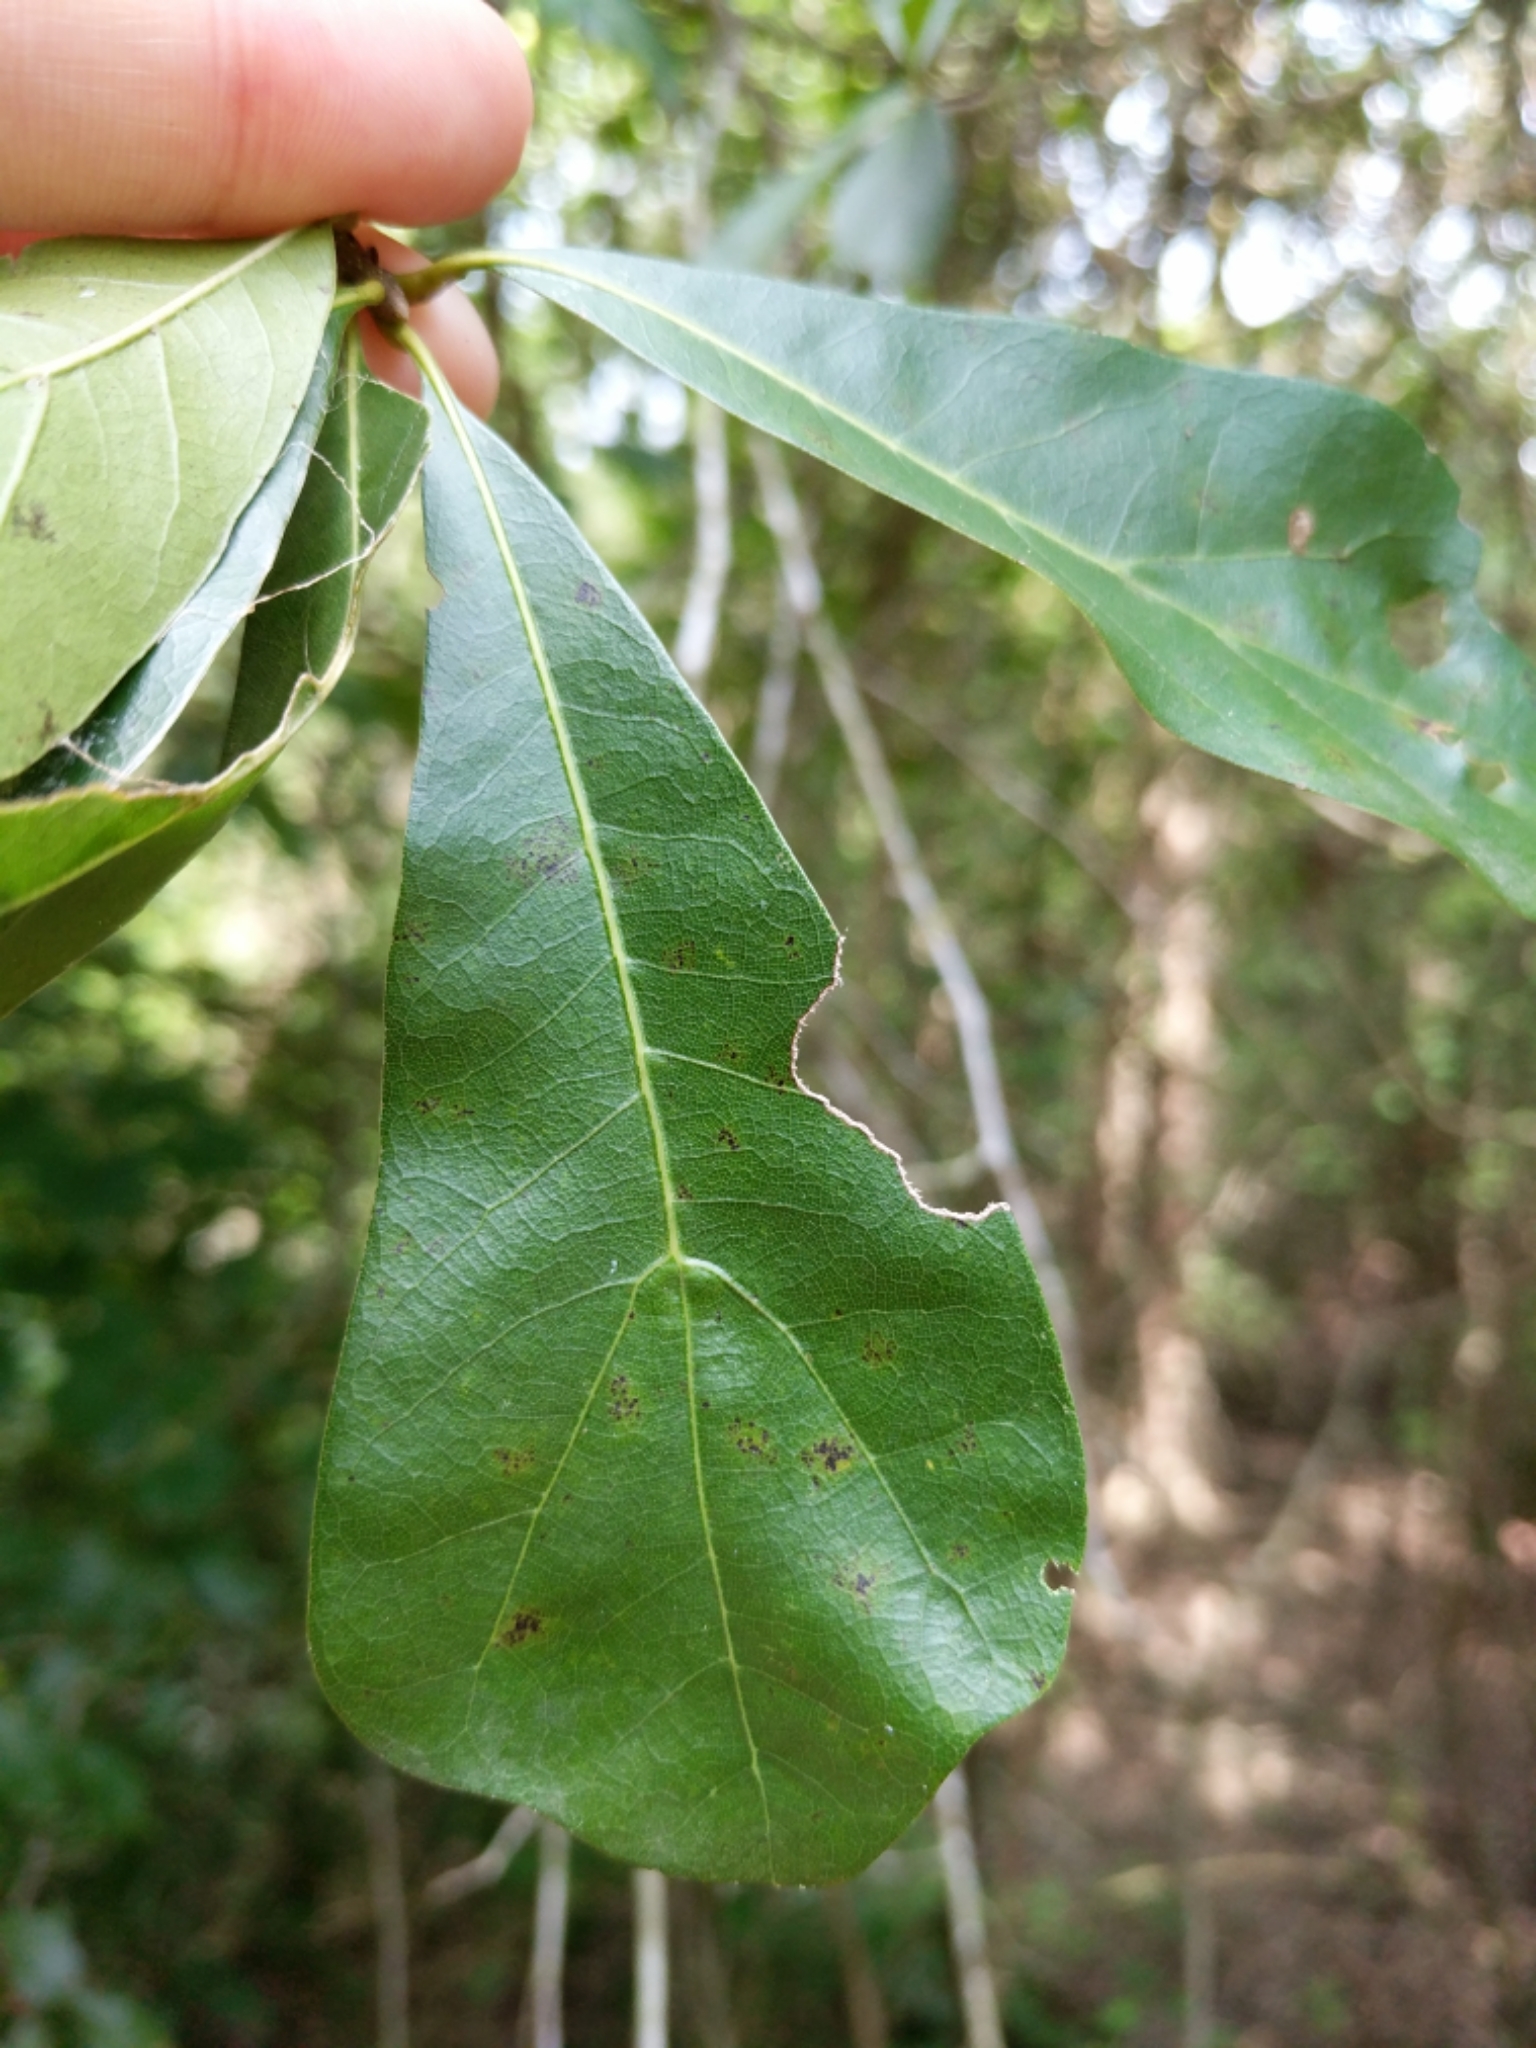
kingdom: Plantae
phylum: Tracheophyta
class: Magnoliopsida
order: Fagales
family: Fagaceae
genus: Quercus
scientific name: Quercus nigra
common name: Water oak
